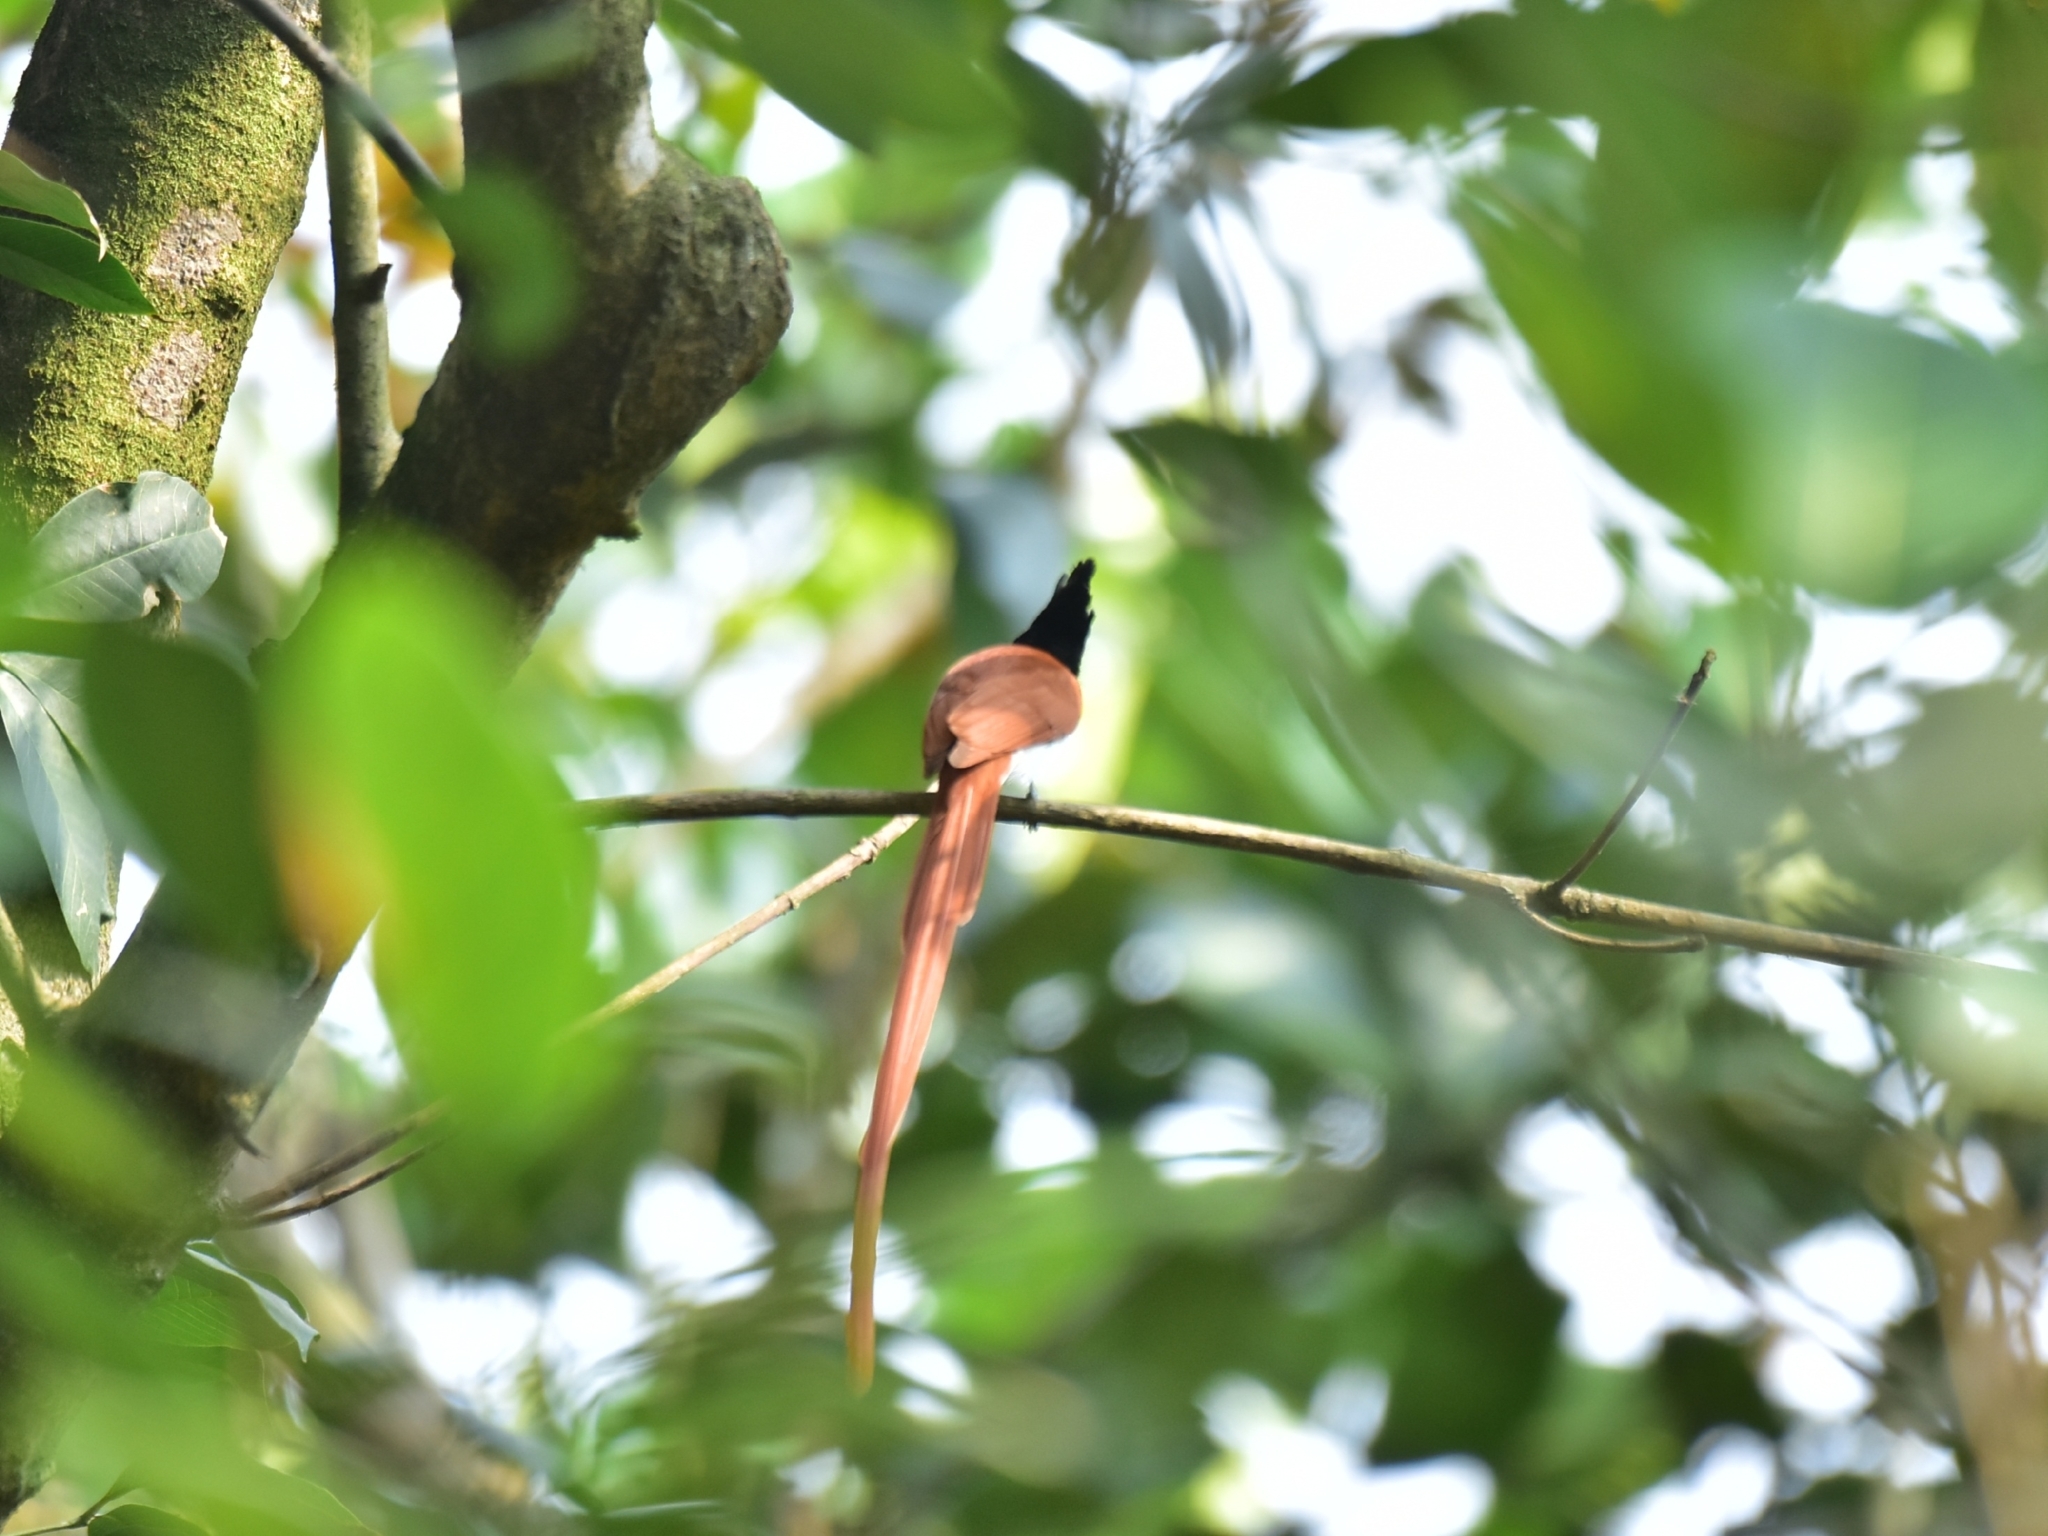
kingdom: Animalia
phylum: Chordata
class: Aves
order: Passeriformes
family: Monarchidae
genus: Terpsiphone
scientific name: Terpsiphone paradisi
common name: Indian paradise flycatcher
